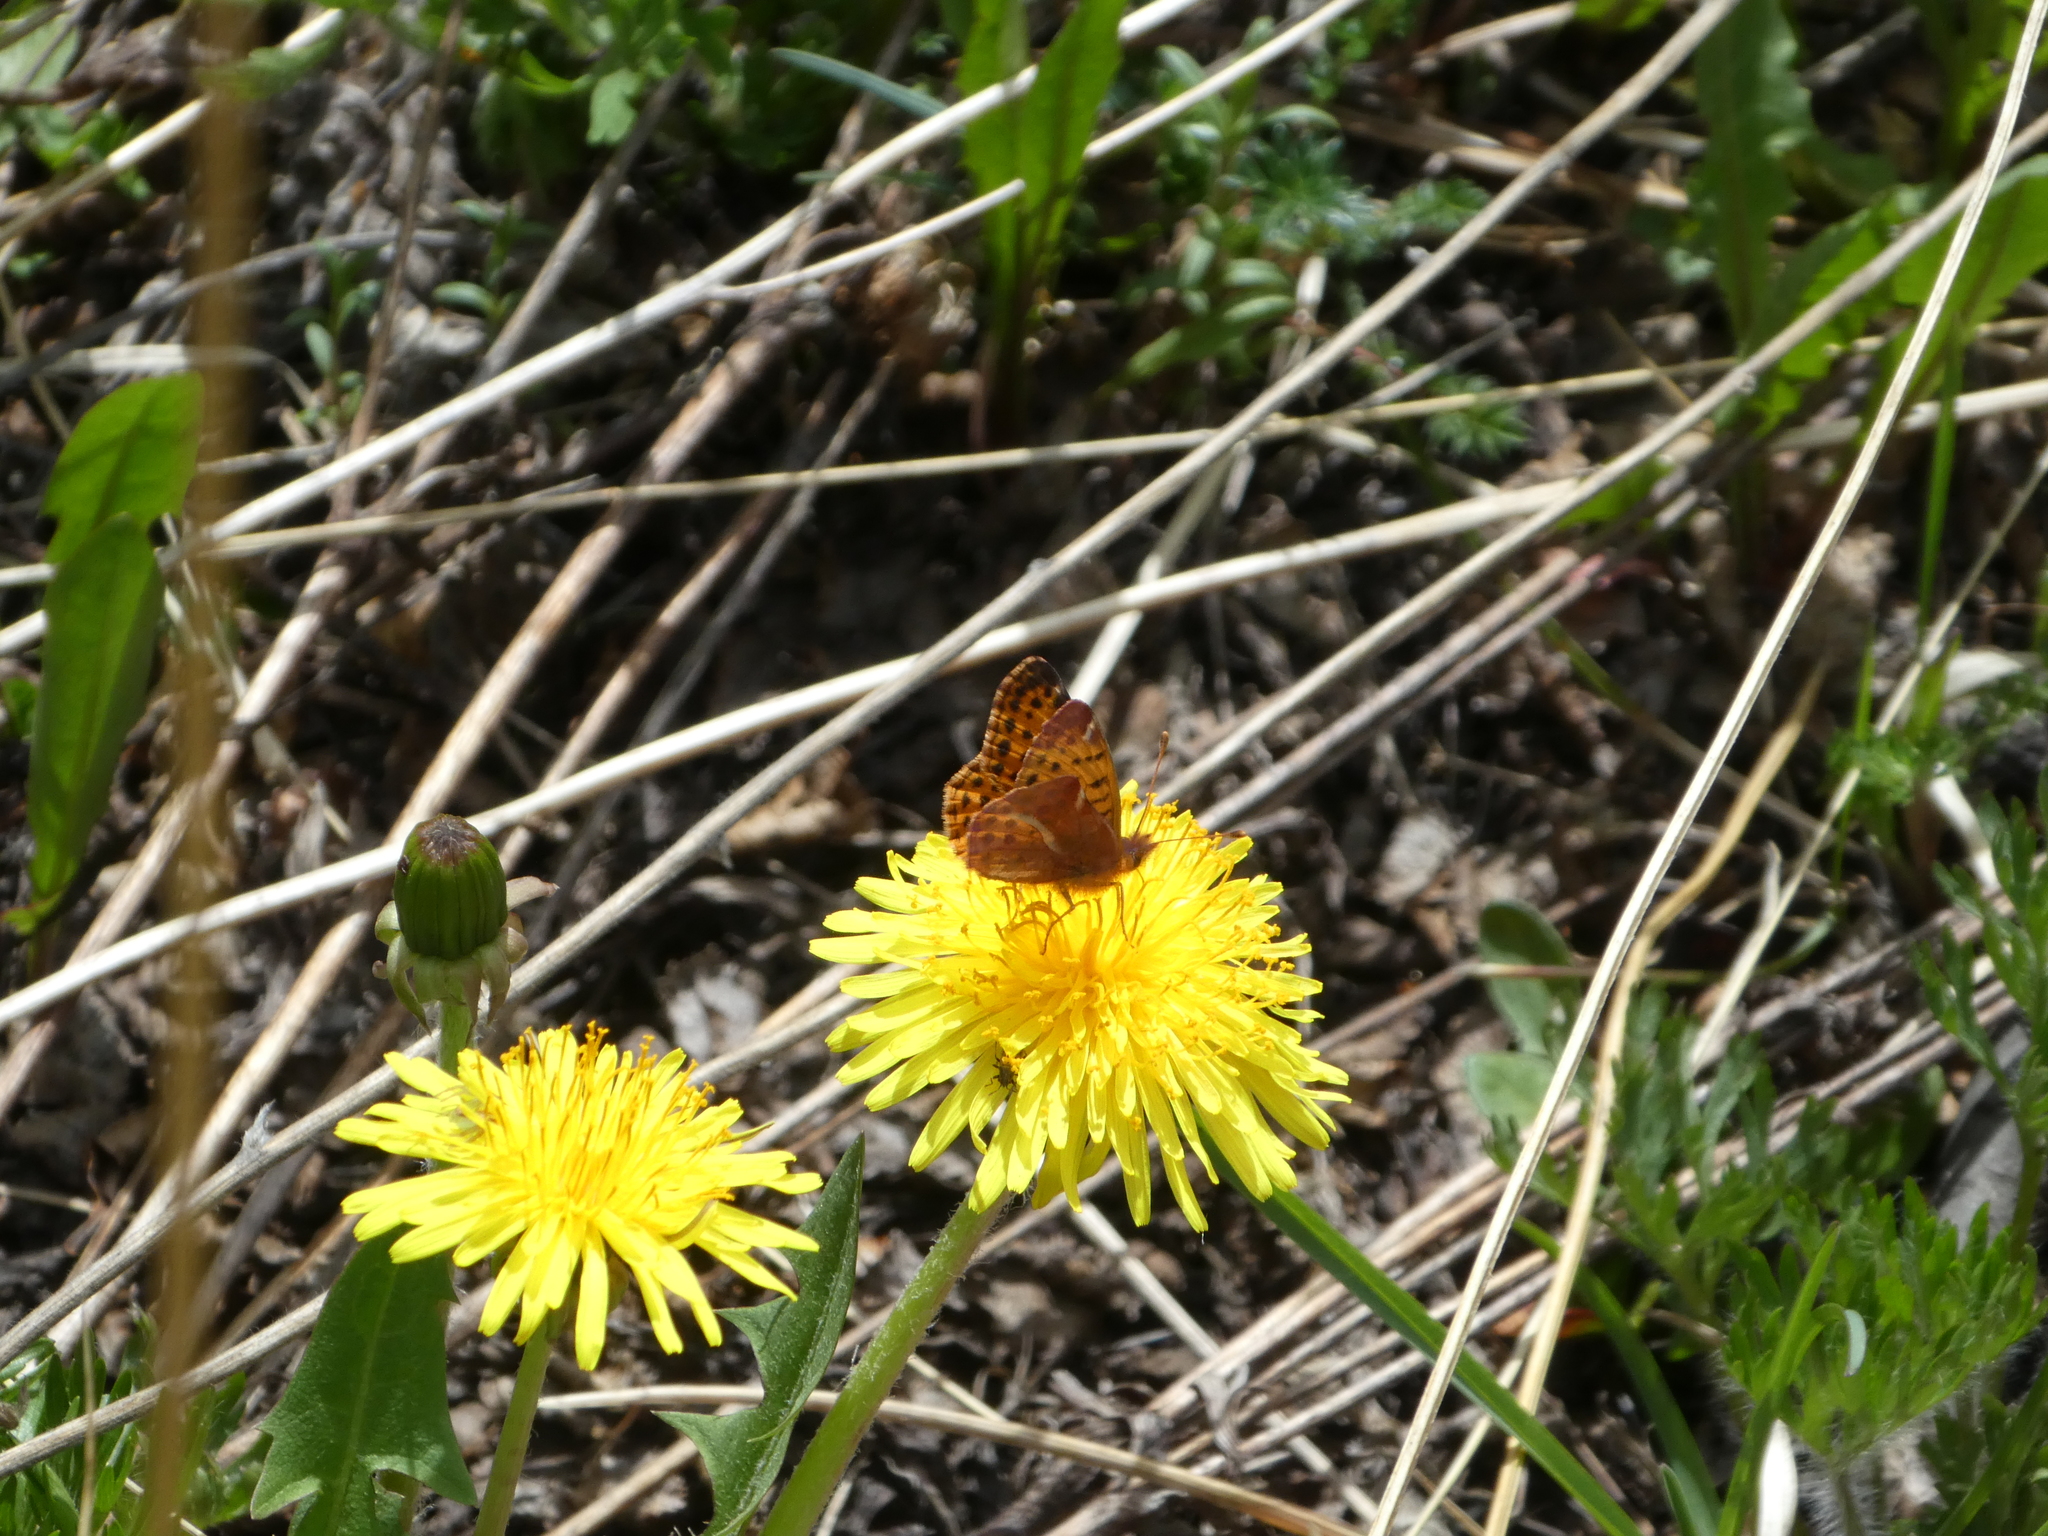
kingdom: Animalia
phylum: Arthropoda
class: Insecta
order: Lepidoptera
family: Nymphalidae
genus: Issoria
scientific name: Issoria Yramea cytheris
